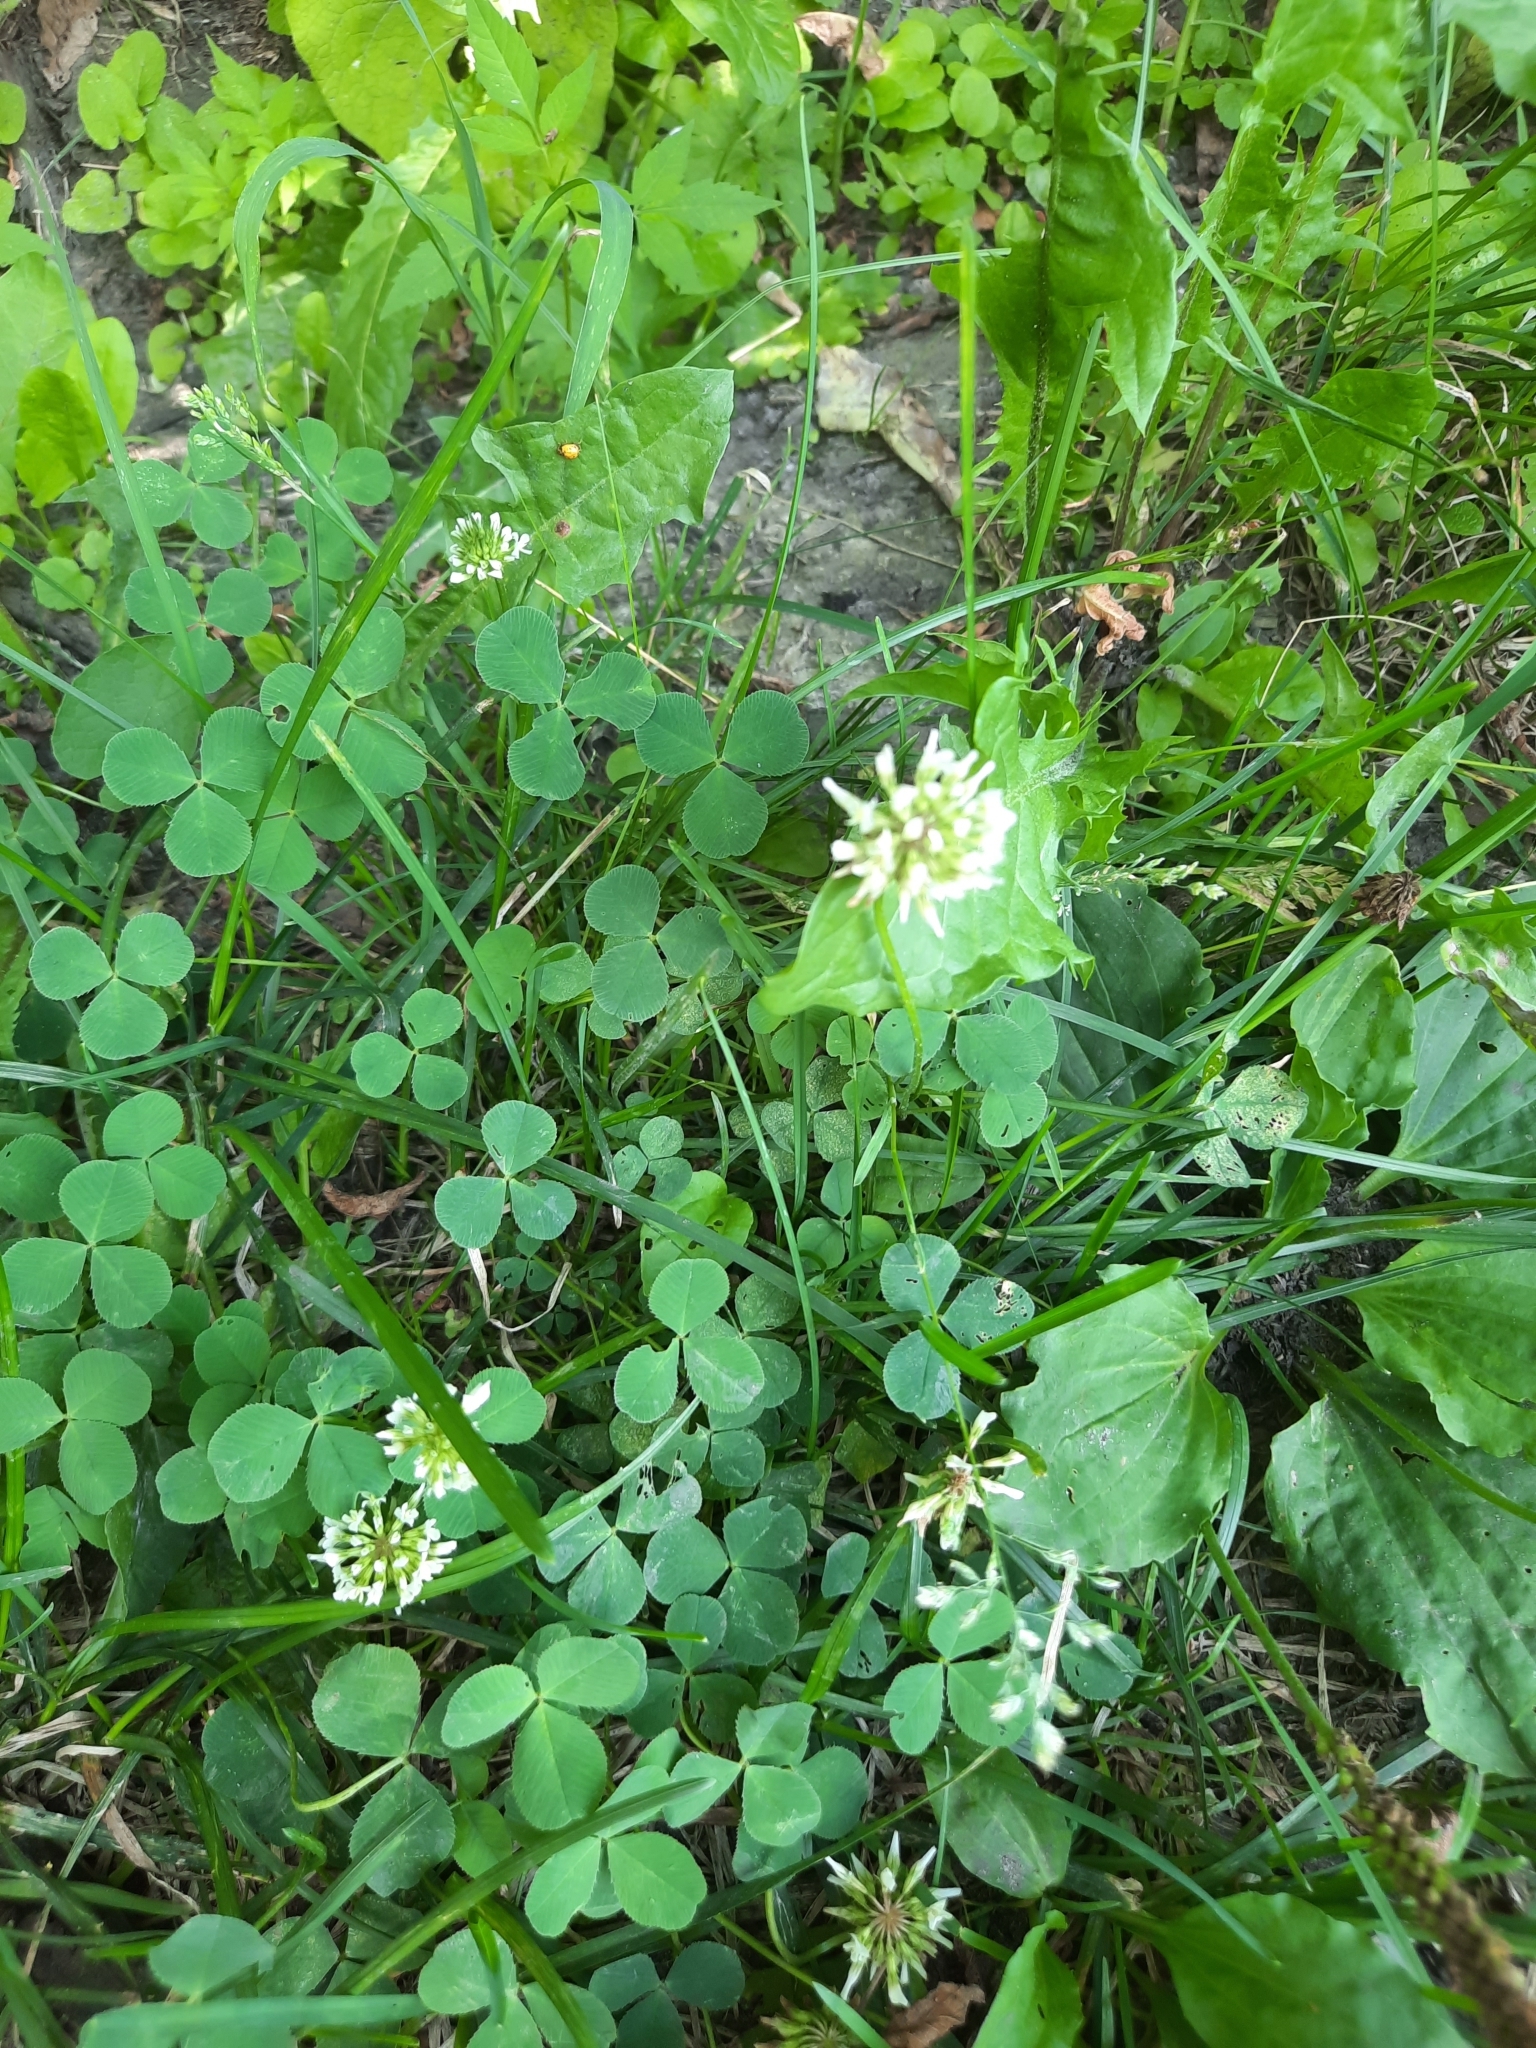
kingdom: Plantae
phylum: Tracheophyta
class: Magnoliopsida
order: Fabales
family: Fabaceae
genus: Trifolium
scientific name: Trifolium repens
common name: White clover
